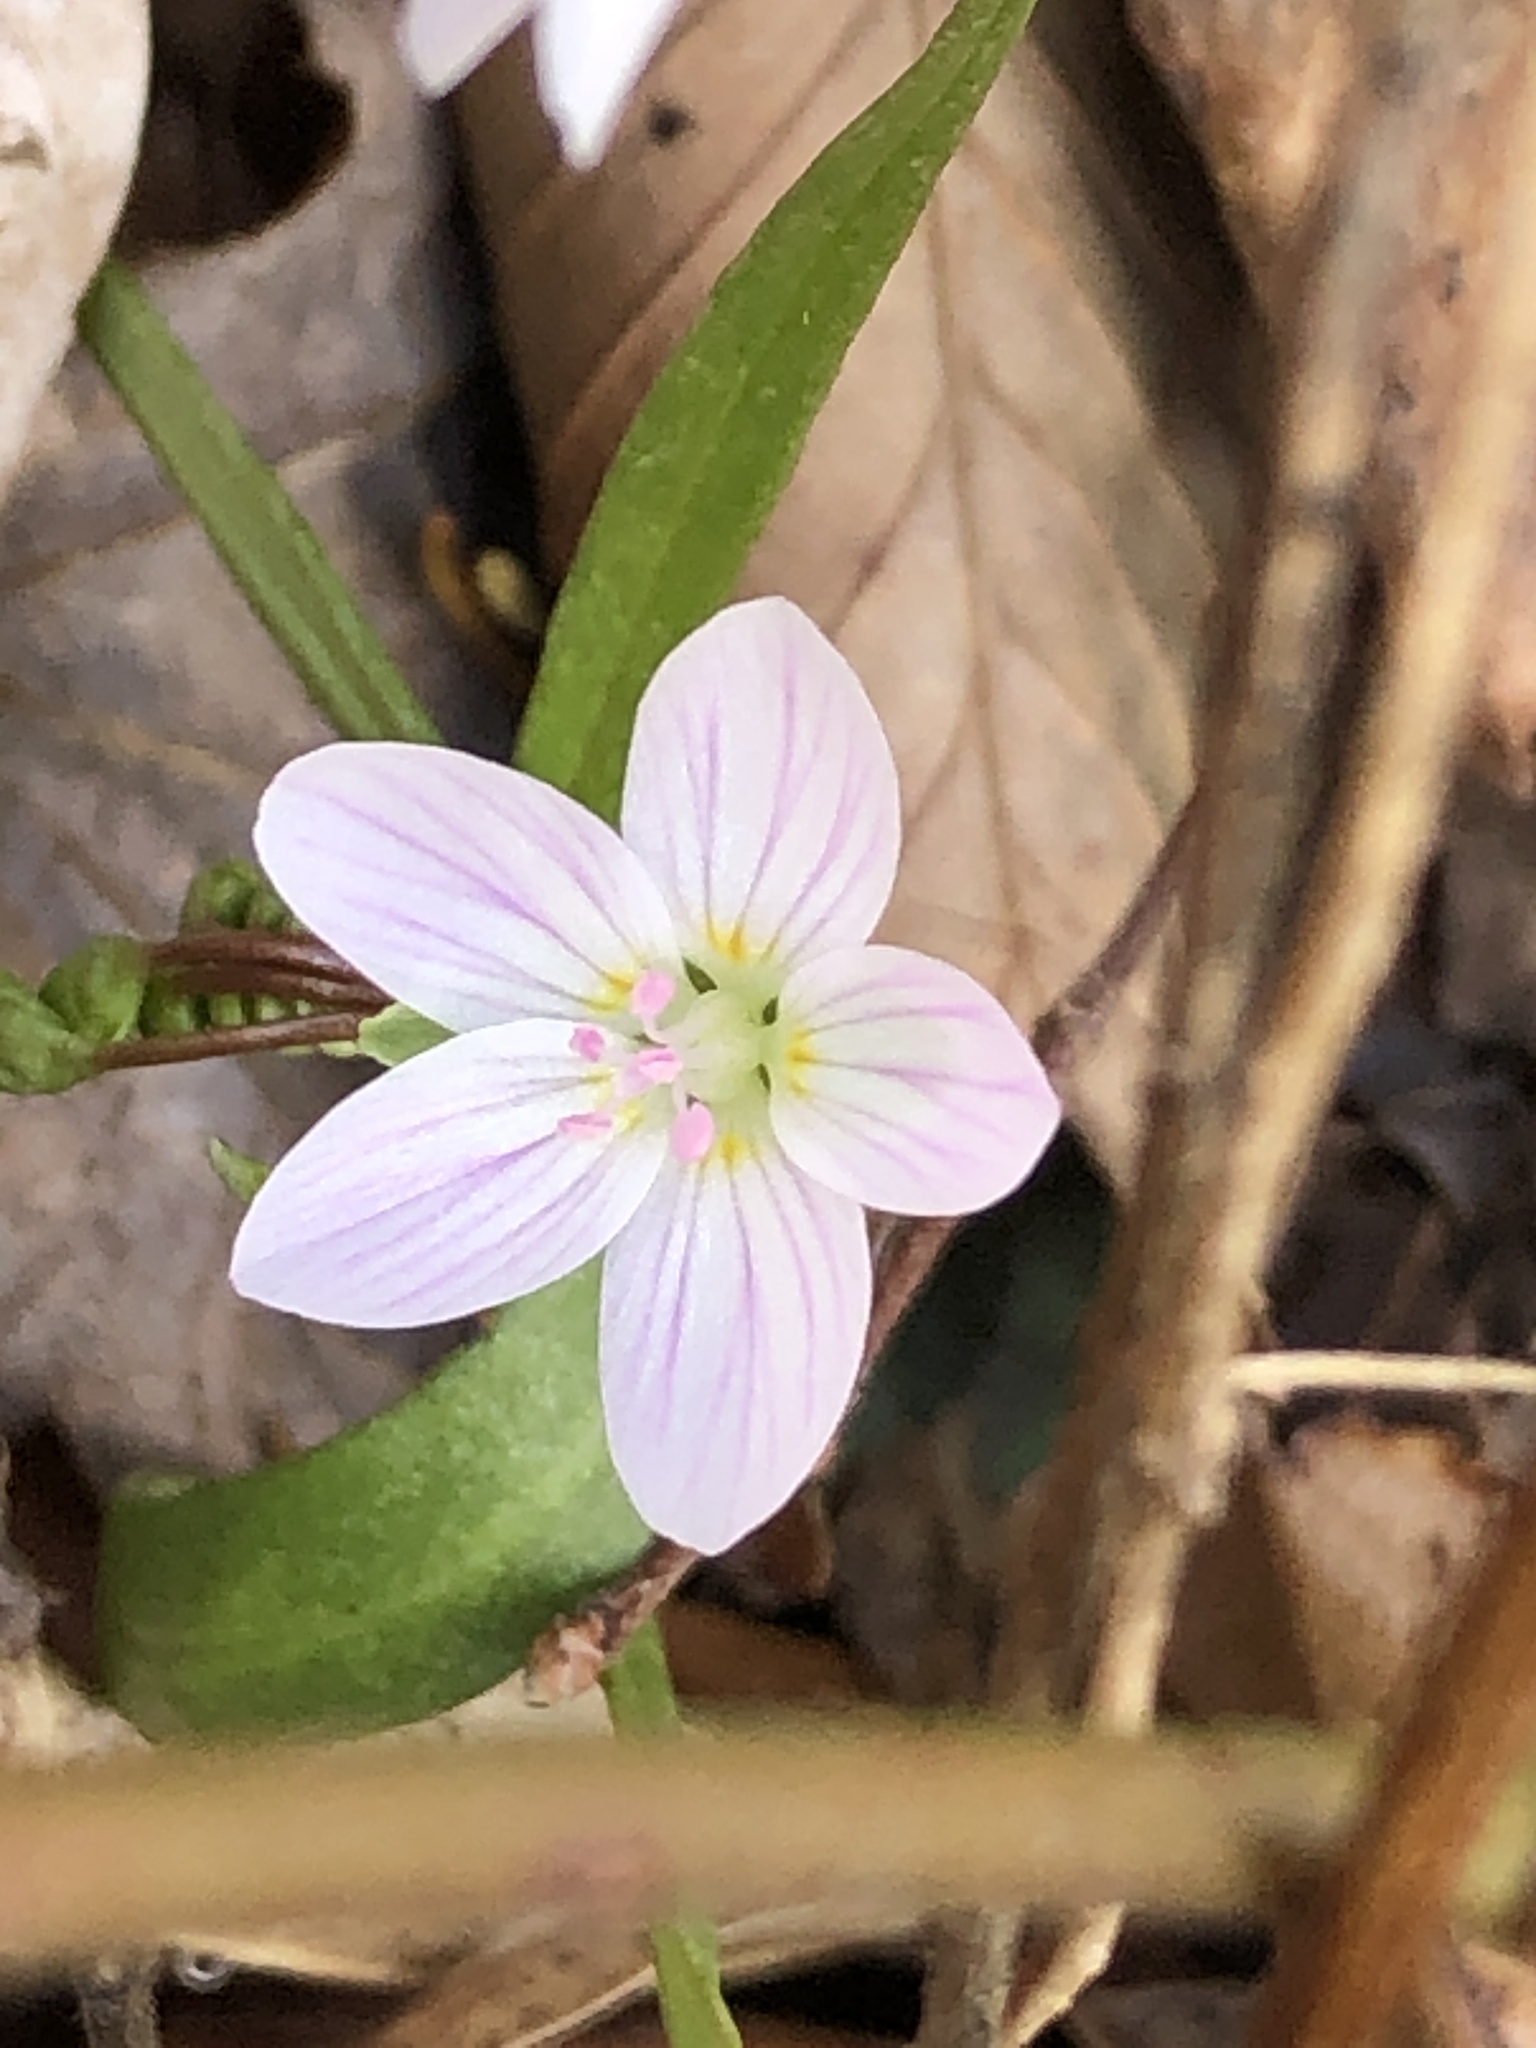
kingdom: Plantae
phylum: Tracheophyta
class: Magnoliopsida
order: Caryophyllales
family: Montiaceae
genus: Claytonia
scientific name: Claytonia virginica
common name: Virginia springbeauty
